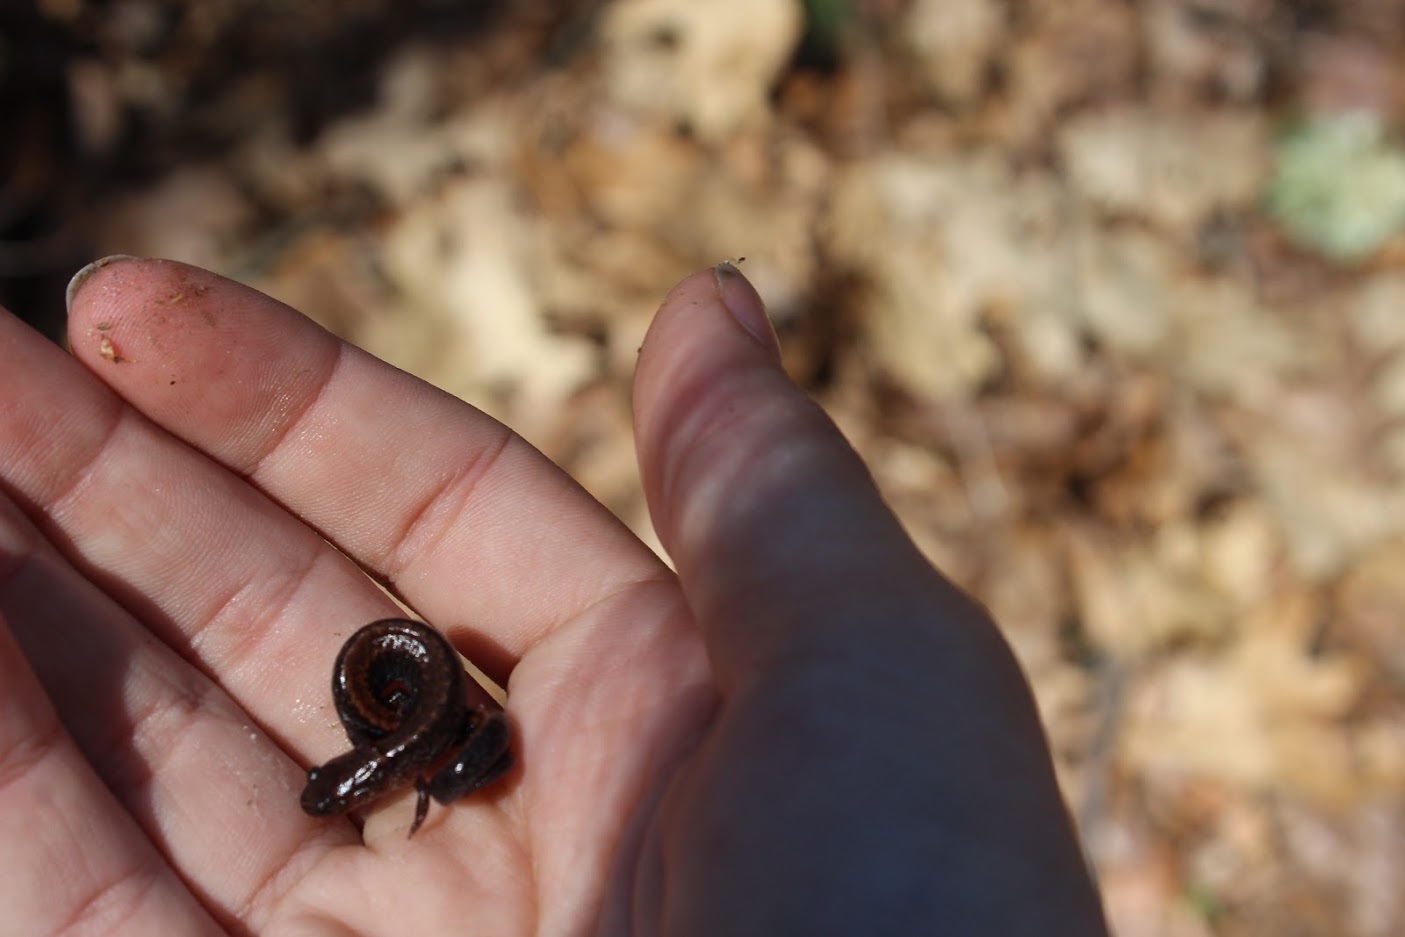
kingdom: Animalia
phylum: Chordata
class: Amphibia
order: Caudata
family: Plethodontidae
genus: Plethodon
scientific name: Plethodon cinereus
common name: Redback salamander
